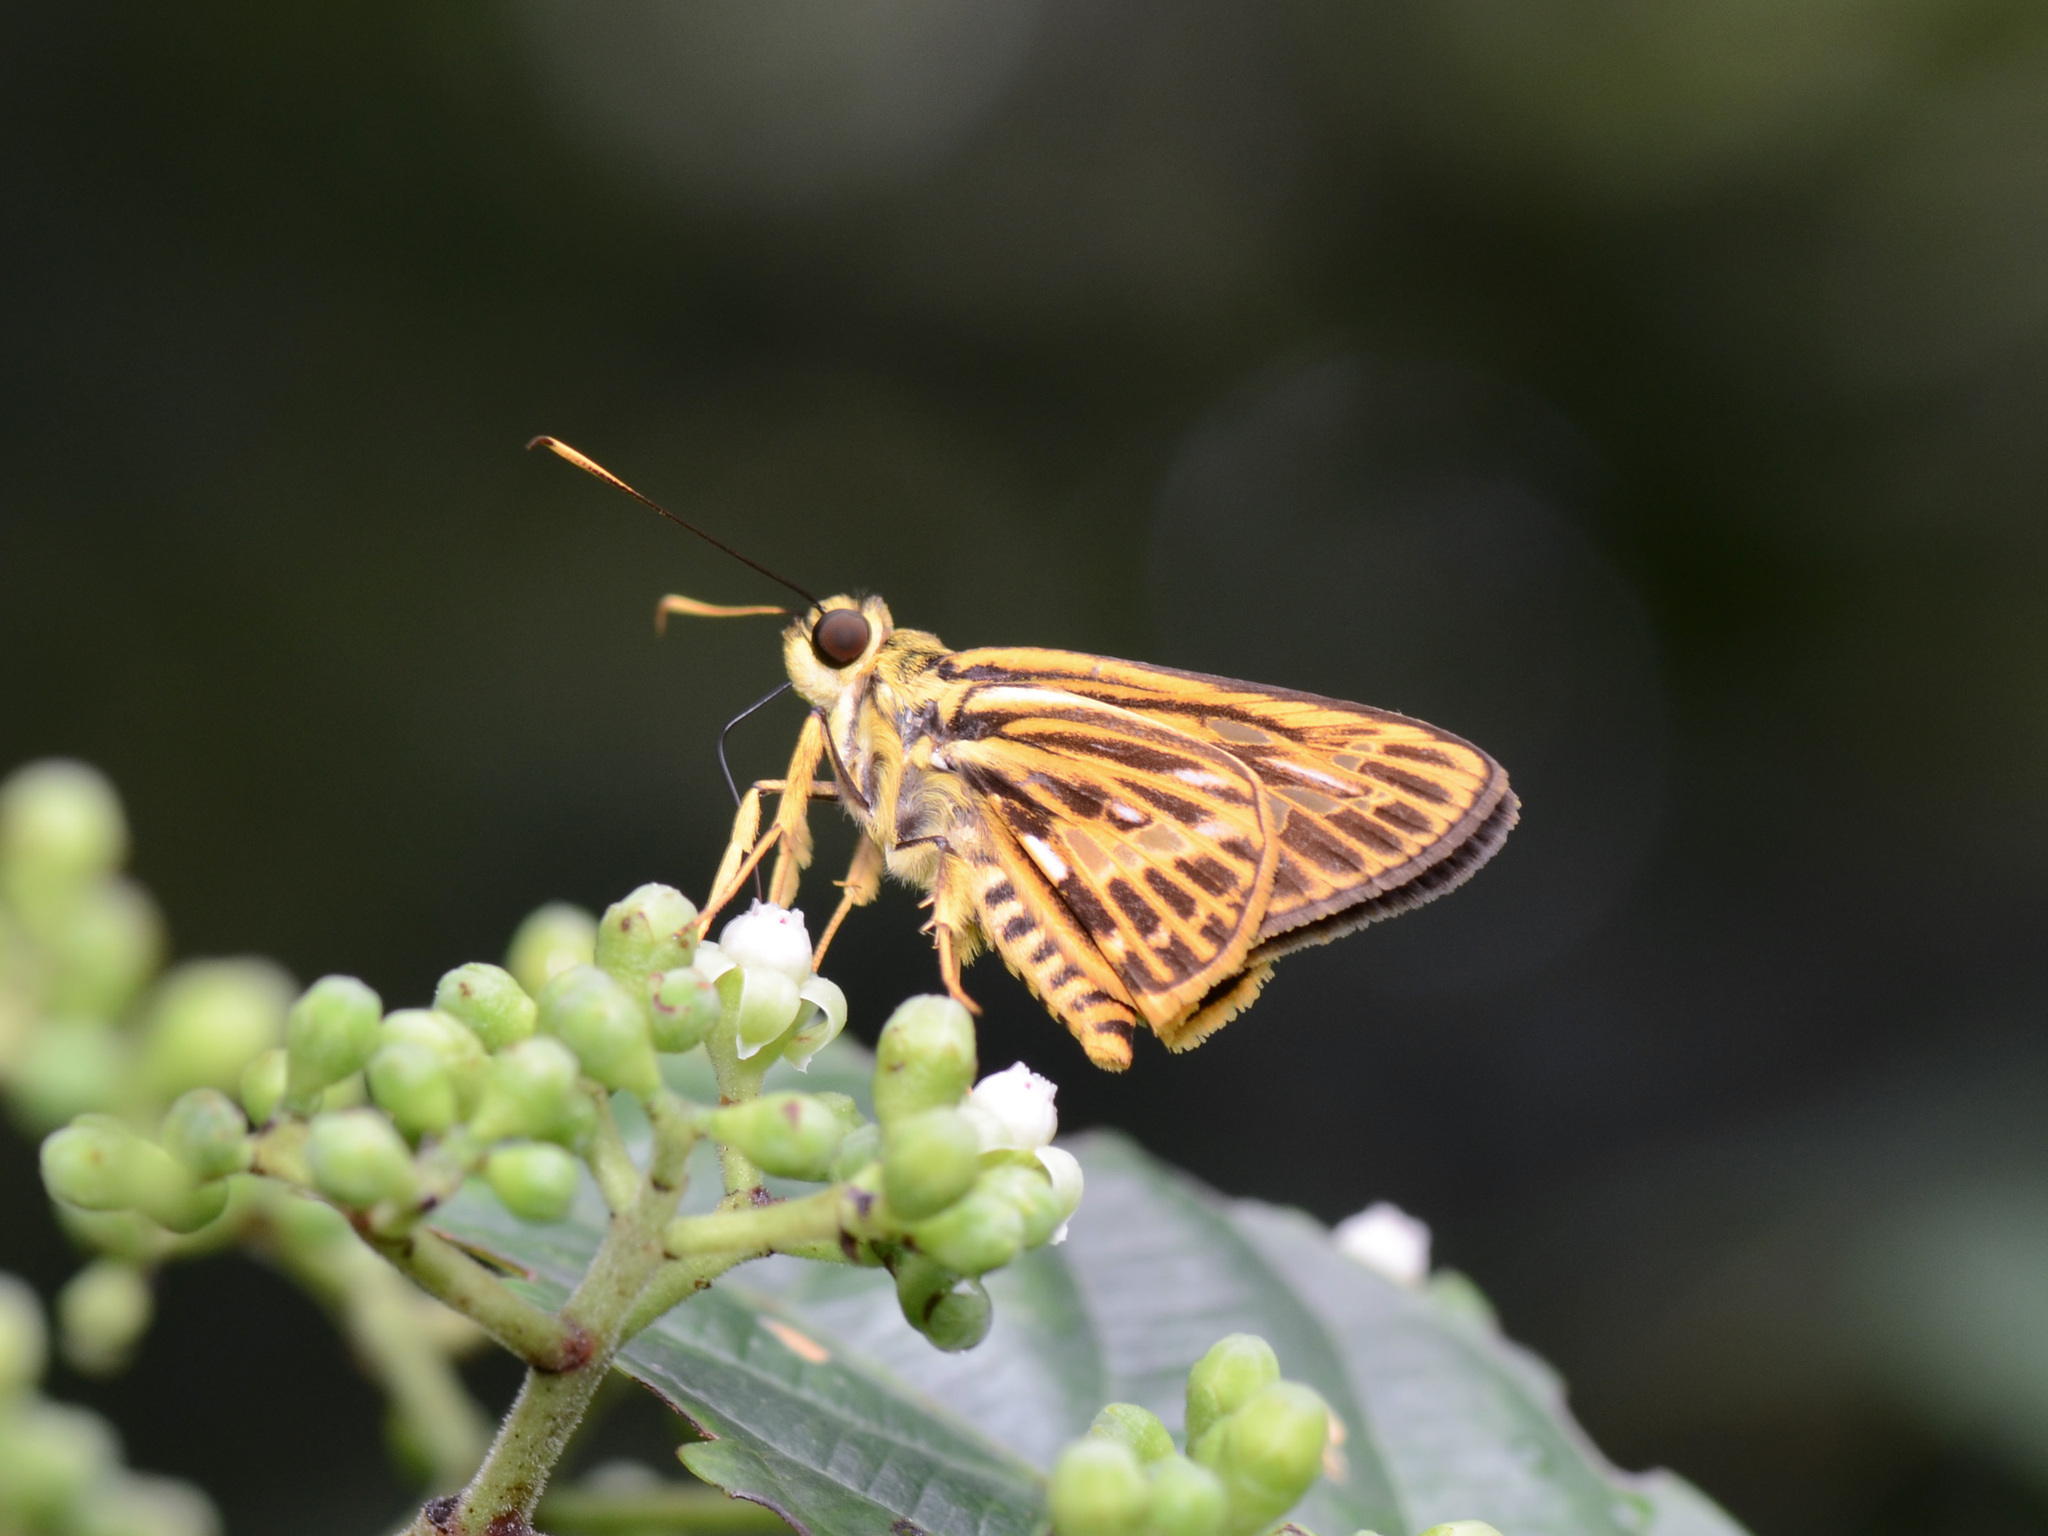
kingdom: Animalia
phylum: Arthropoda
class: Insecta
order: Lepidoptera
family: Hesperiidae
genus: Pyroneura
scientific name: Pyroneura latoia
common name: Yellow vein lancer
